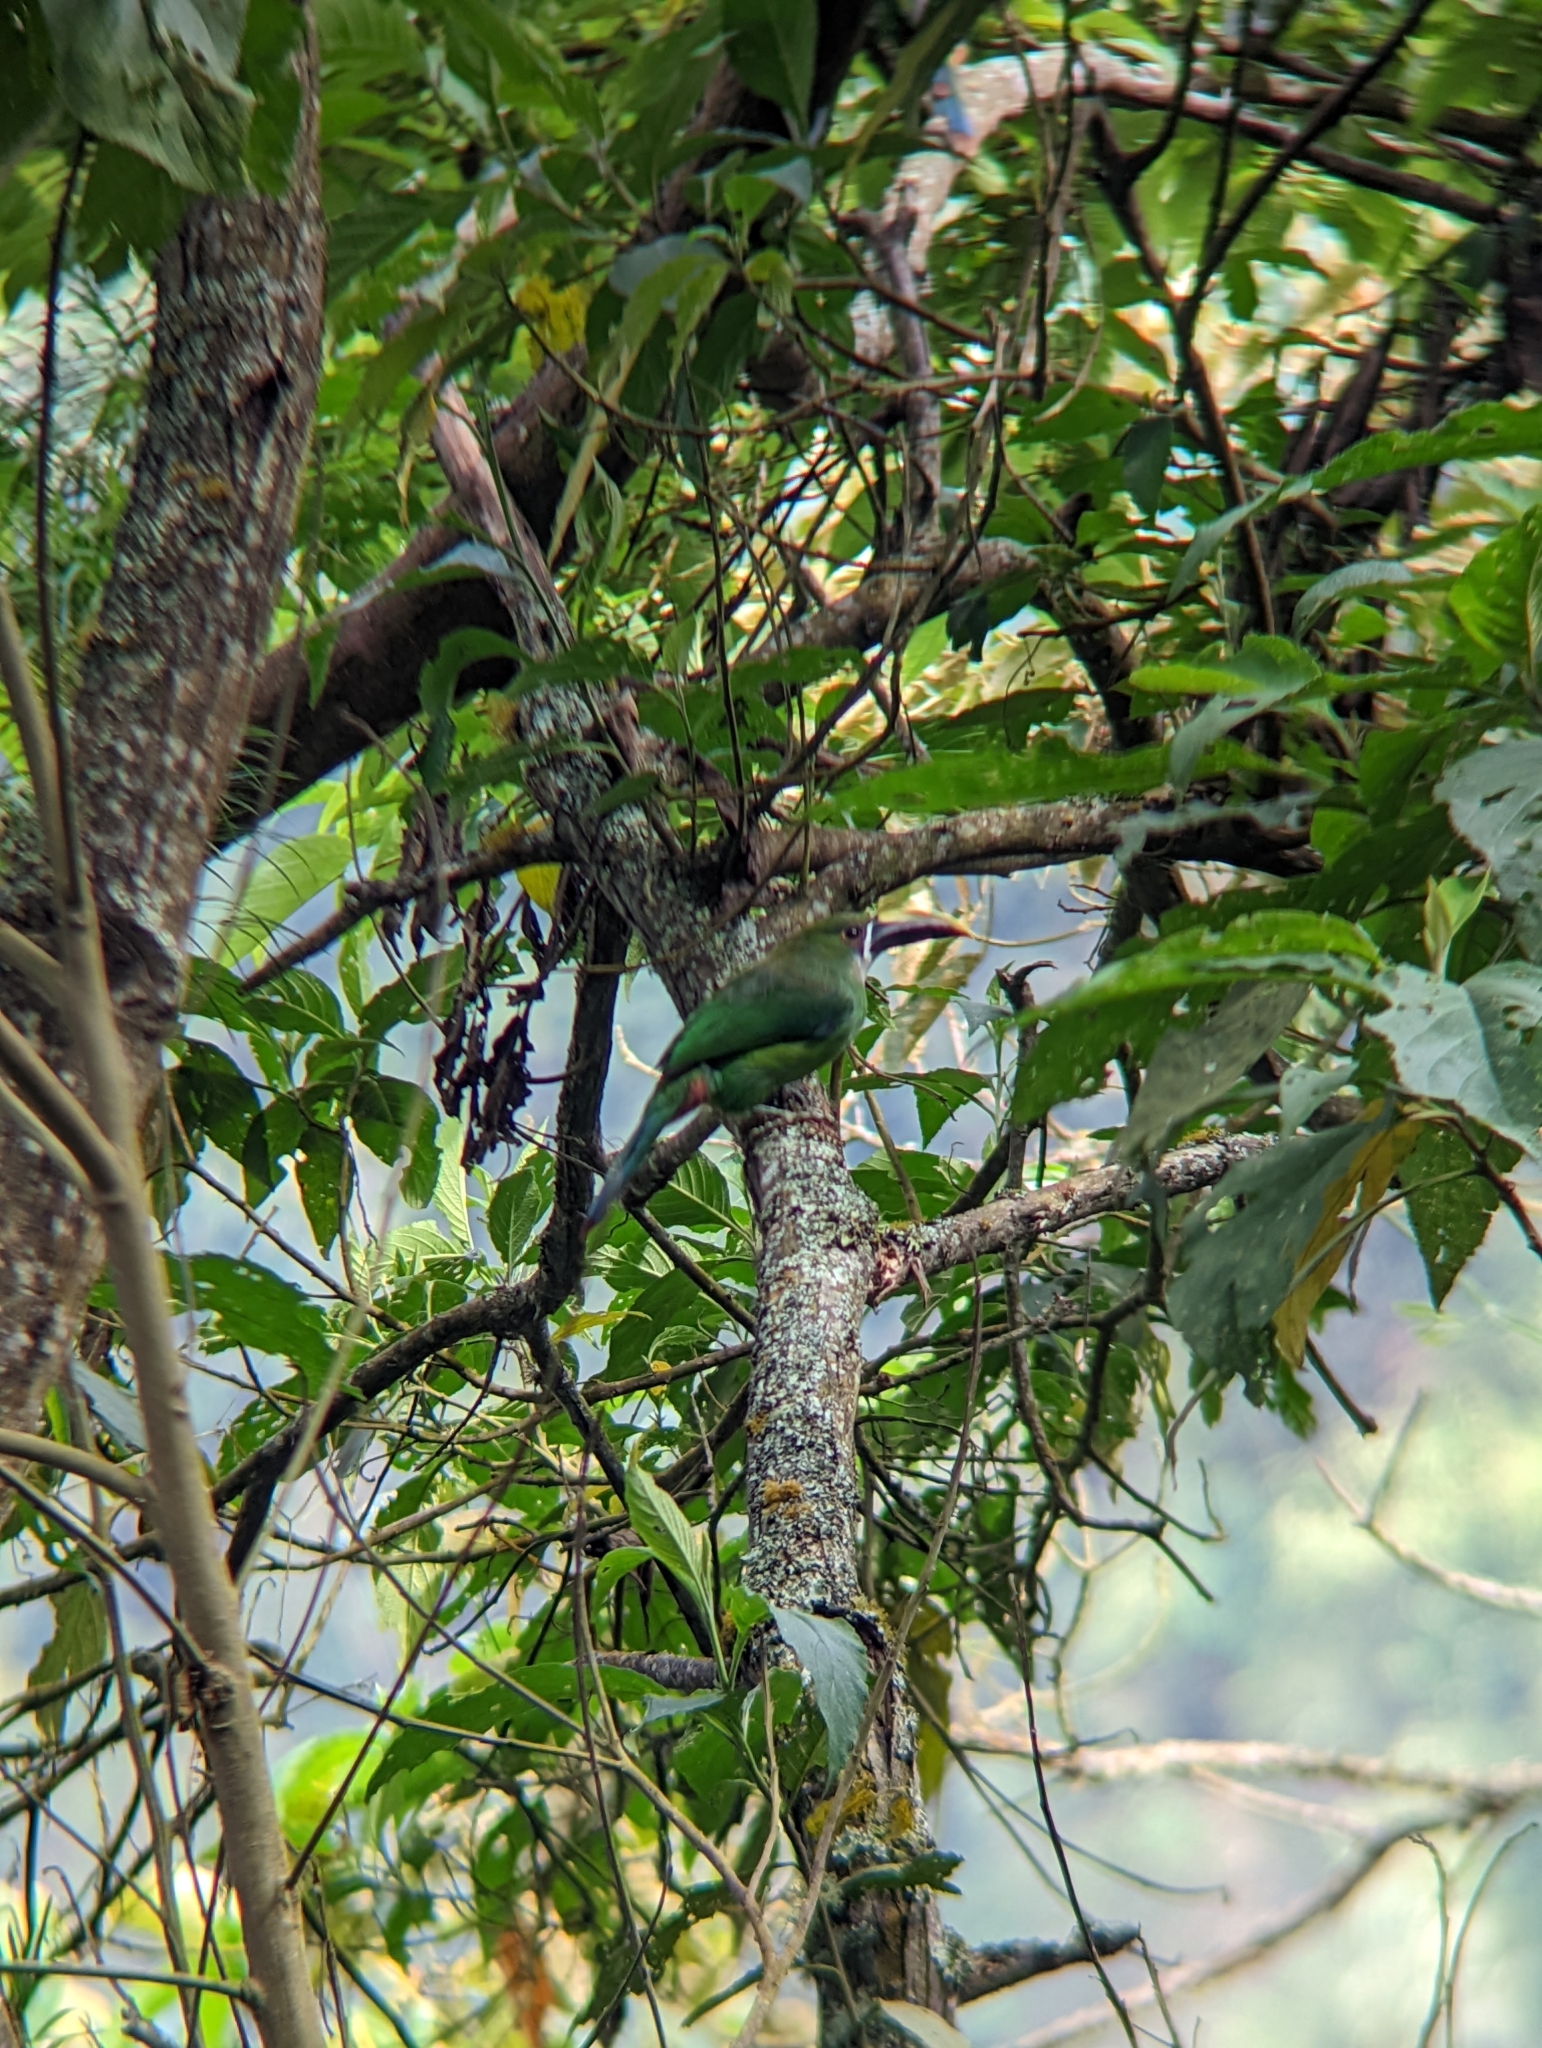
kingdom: Animalia
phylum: Chordata
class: Aves
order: Piciformes
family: Ramphastidae
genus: Aulacorhynchus
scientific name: Aulacorhynchus albivitta
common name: White-throated toucanet
